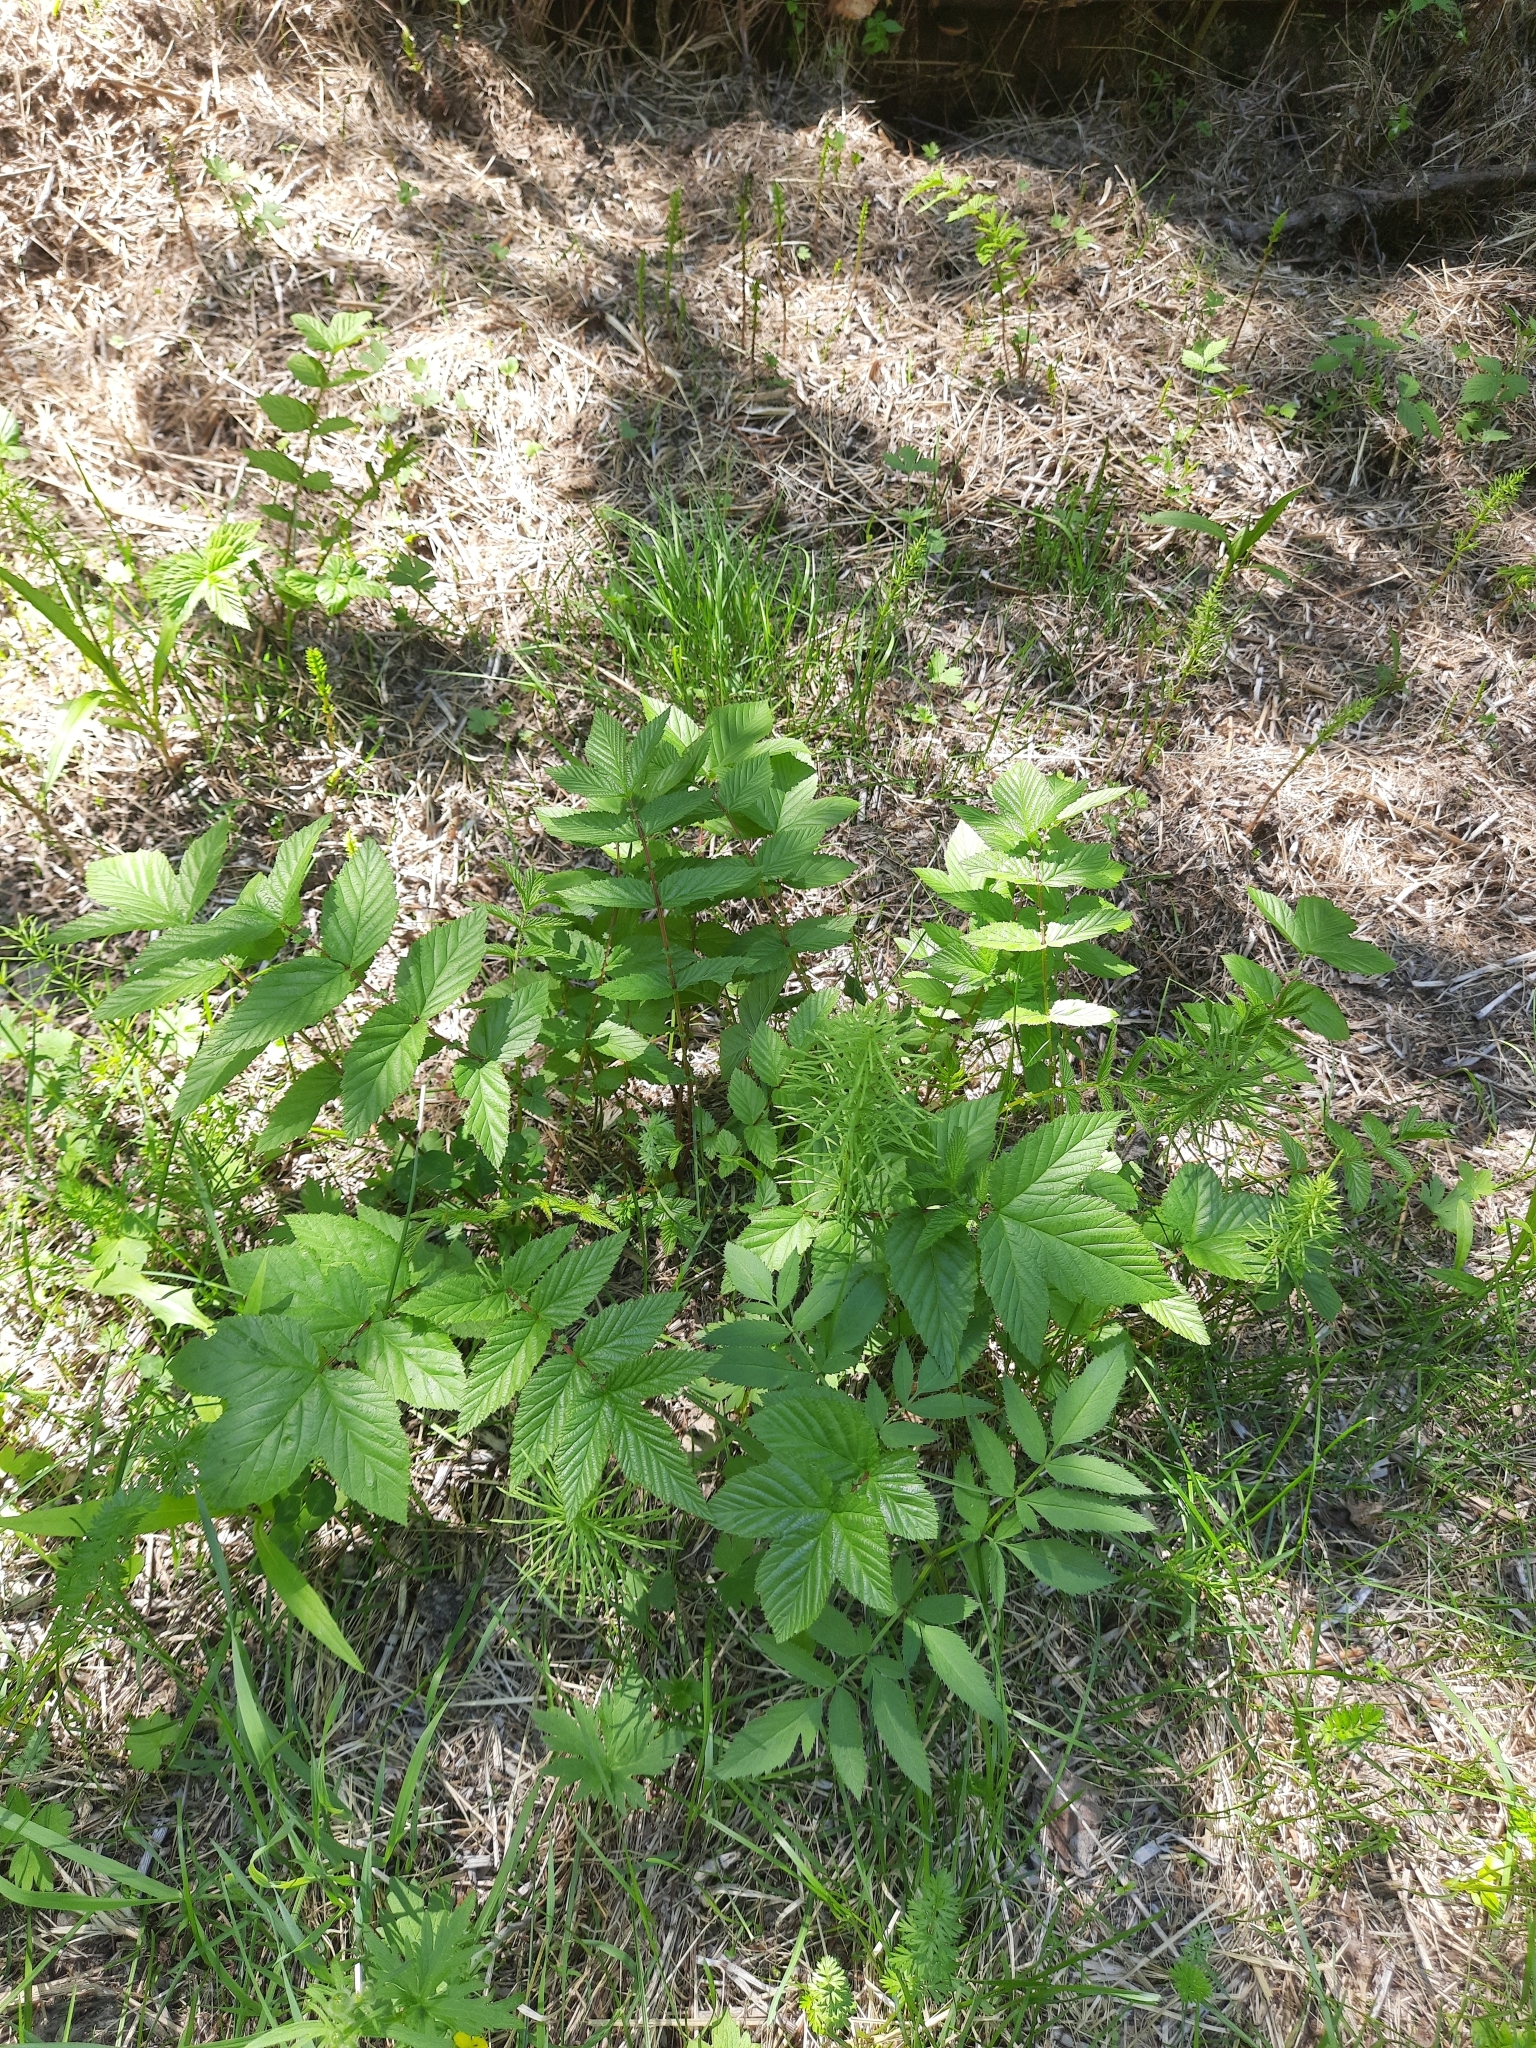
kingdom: Plantae
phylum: Tracheophyta
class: Magnoliopsida
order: Rosales
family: Rosaceae
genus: Filipendula
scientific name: Filipendula ulmaria
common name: Meadowsweet
